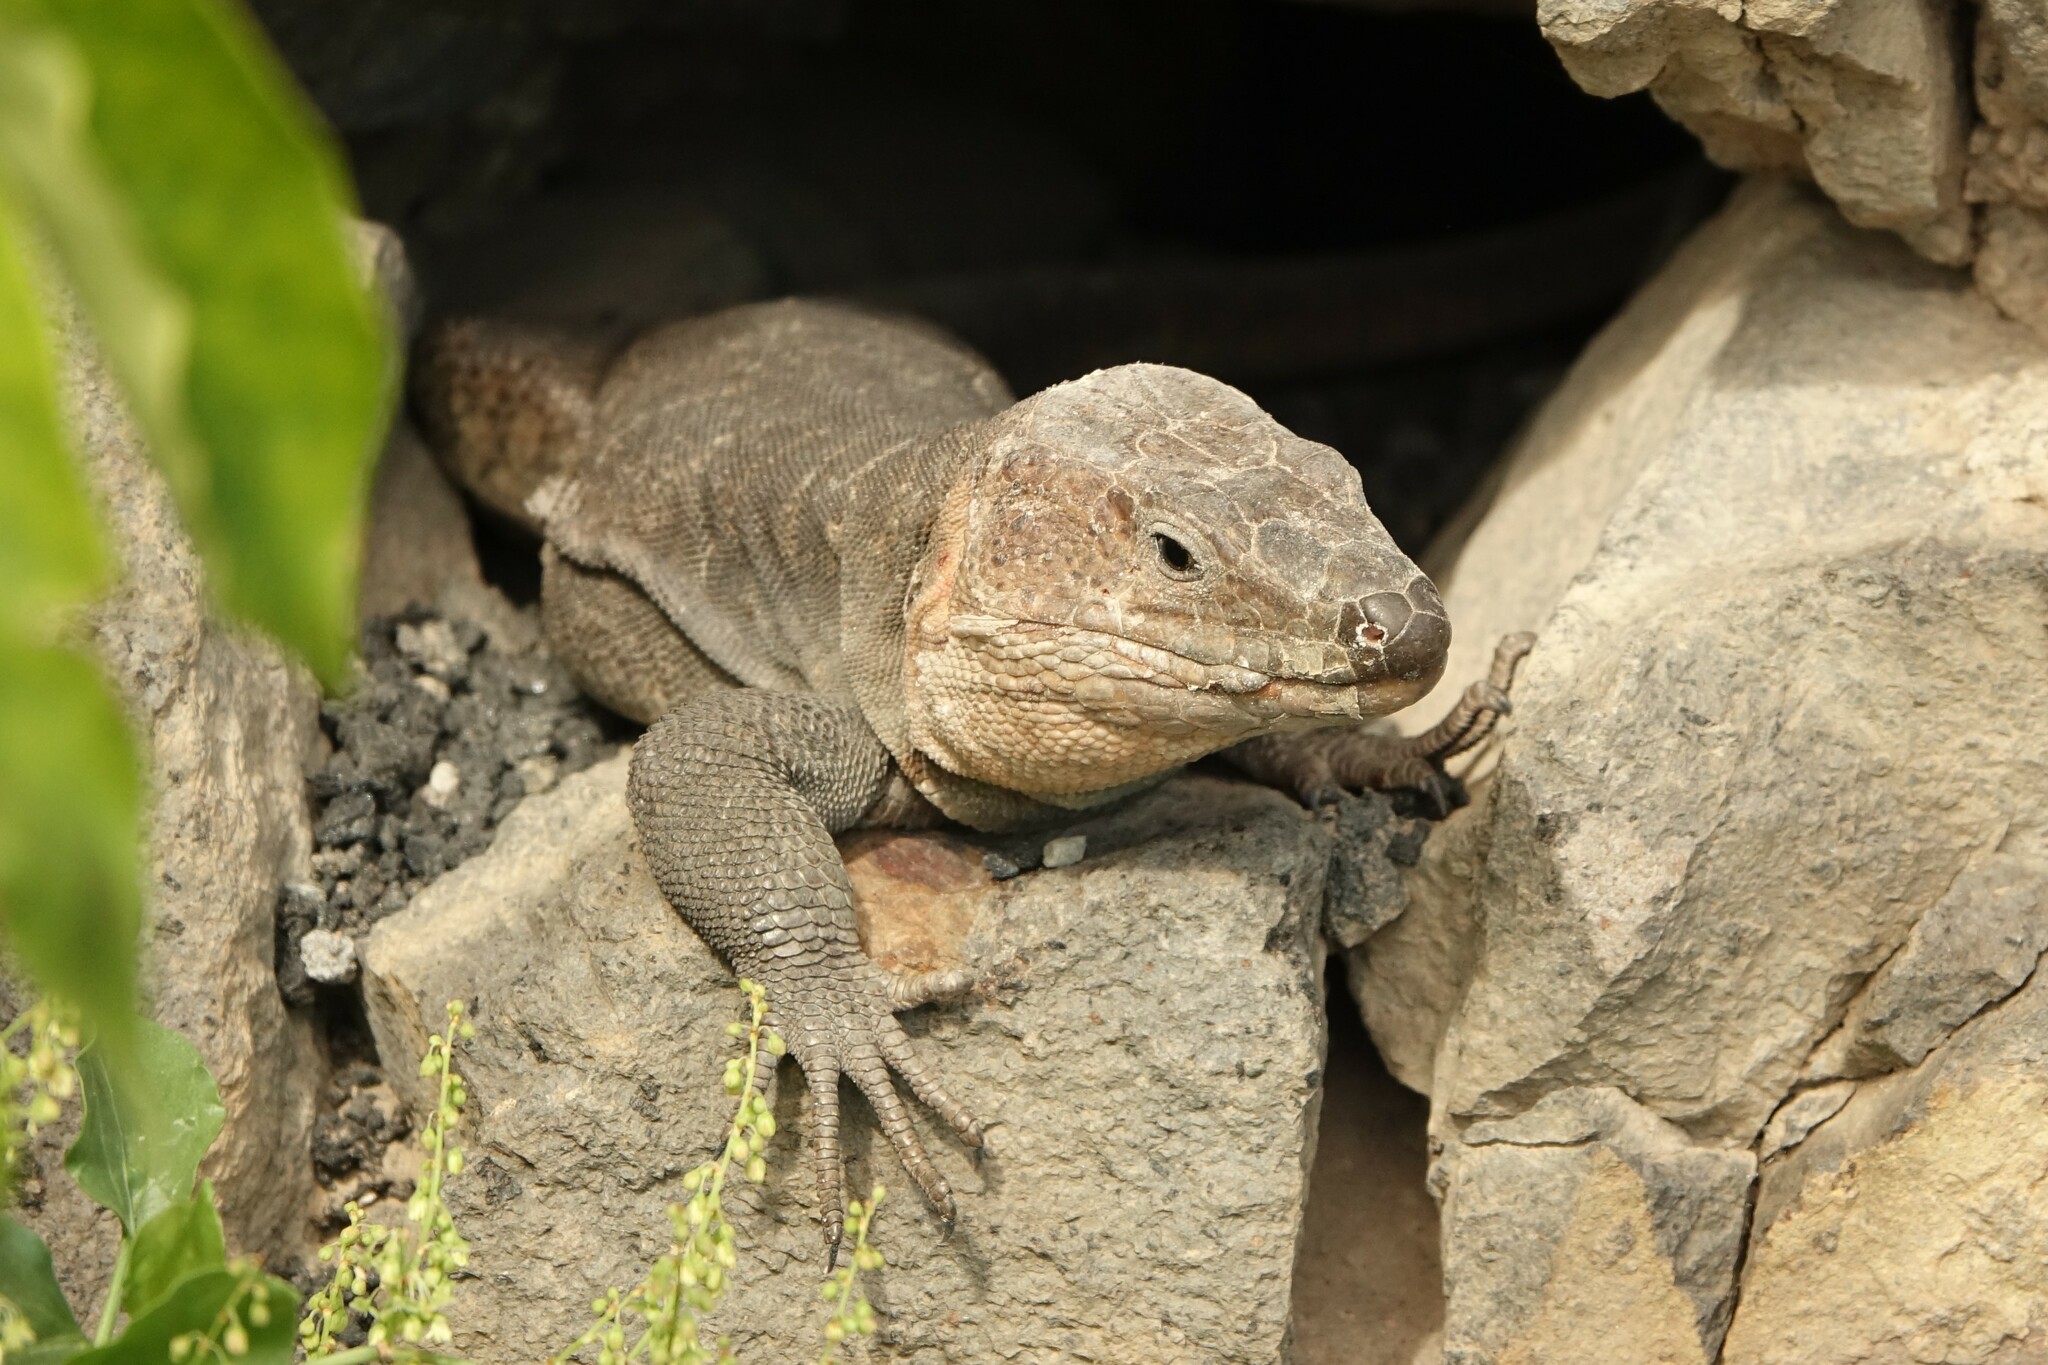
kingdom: Animalia
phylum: Chordata
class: Squamata
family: Lacertidae
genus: Gallotia
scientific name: Gallotia stehlini
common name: Gran canaria giant lizard
